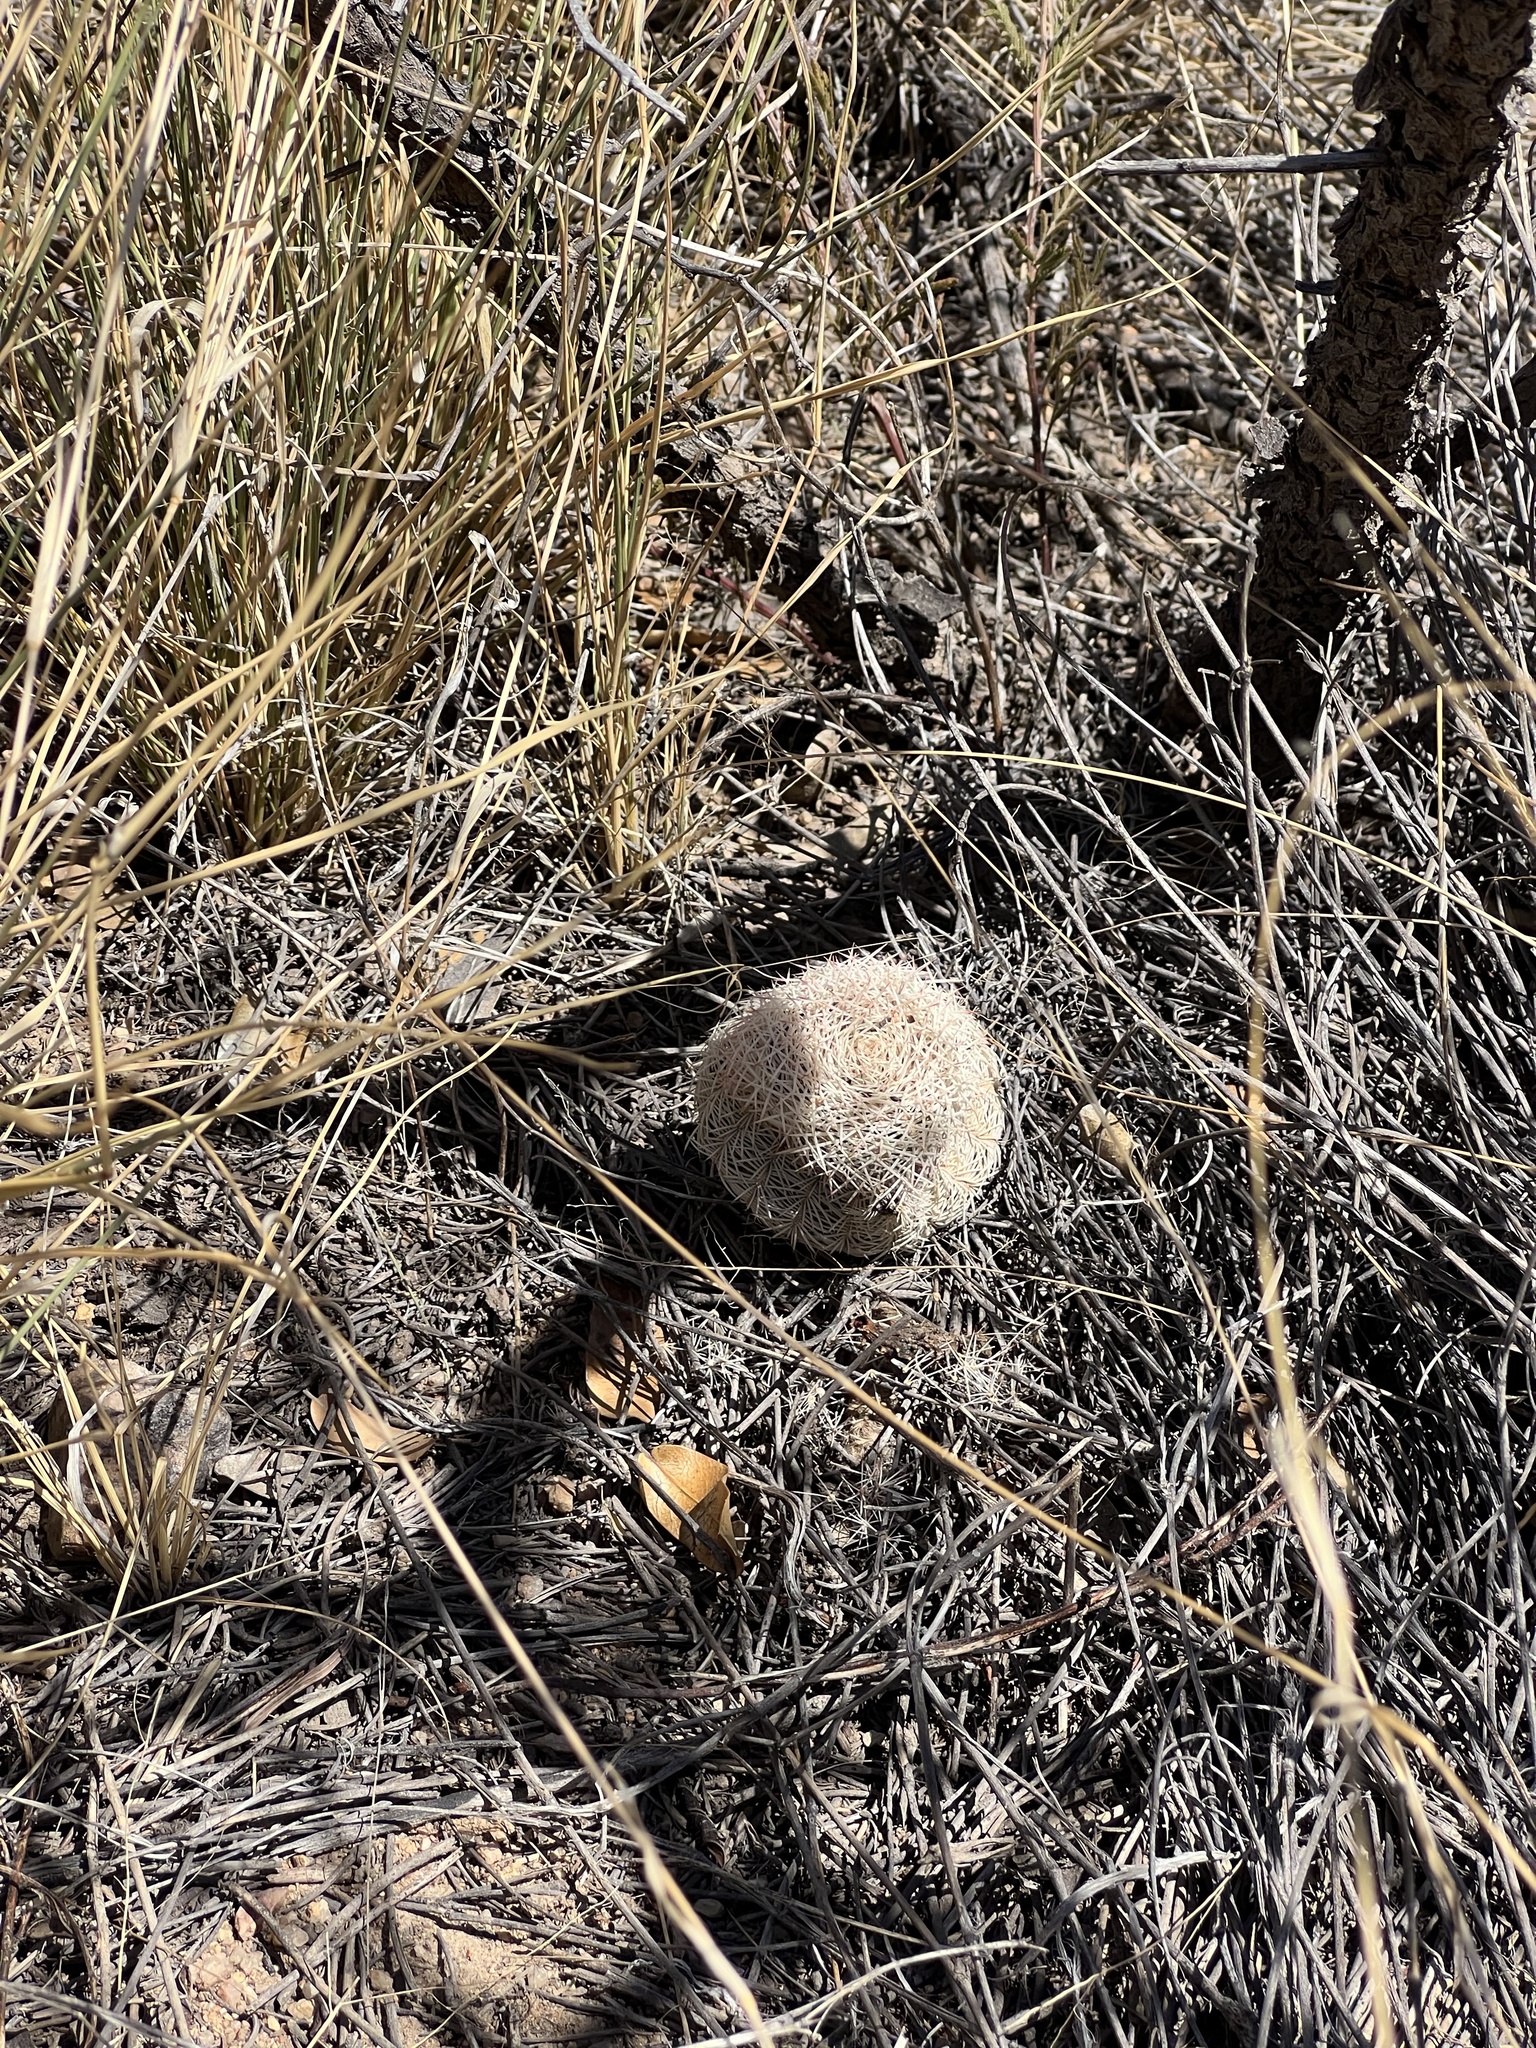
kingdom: Plantae
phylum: Tracheophyta
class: Magnoliopsida
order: Caryophyllales
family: Cactaceae
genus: Echinocereus
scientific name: Echinocereus rigidissimus
